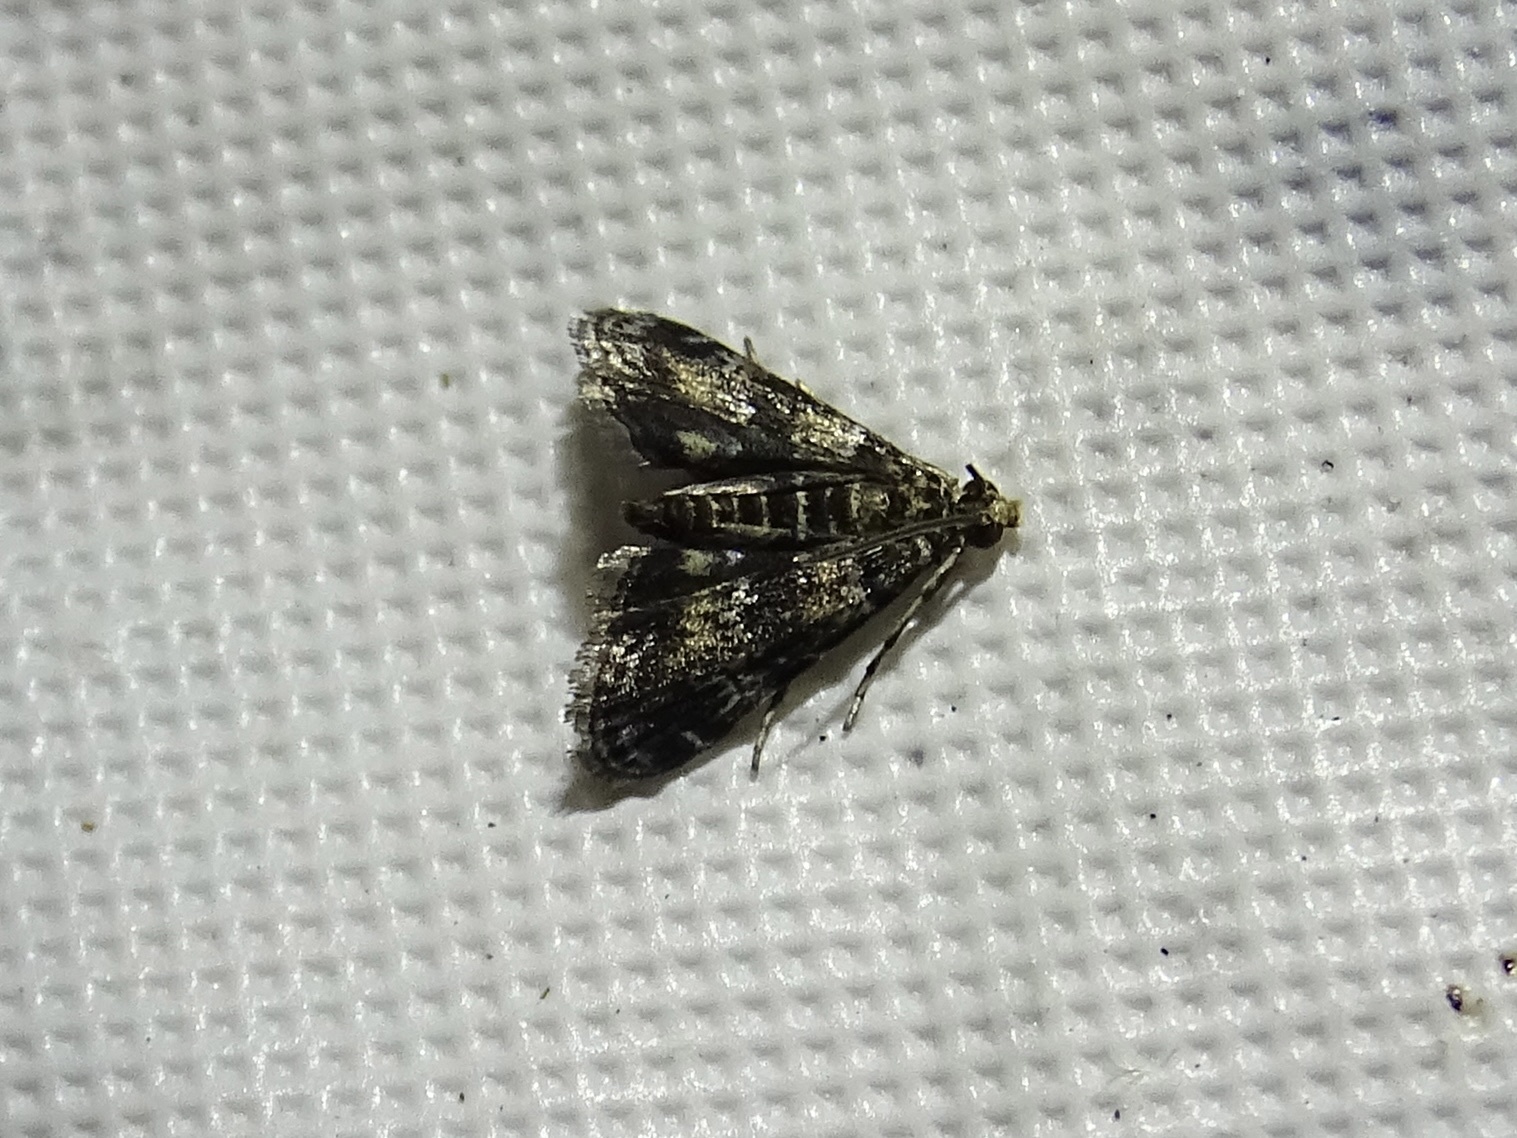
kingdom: Animalia
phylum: Arthropoda
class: Insecta
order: Lepidoptera
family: Crambidae
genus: Elophila
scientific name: Elophila obliteralis
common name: Waterlily leafcutter moth
